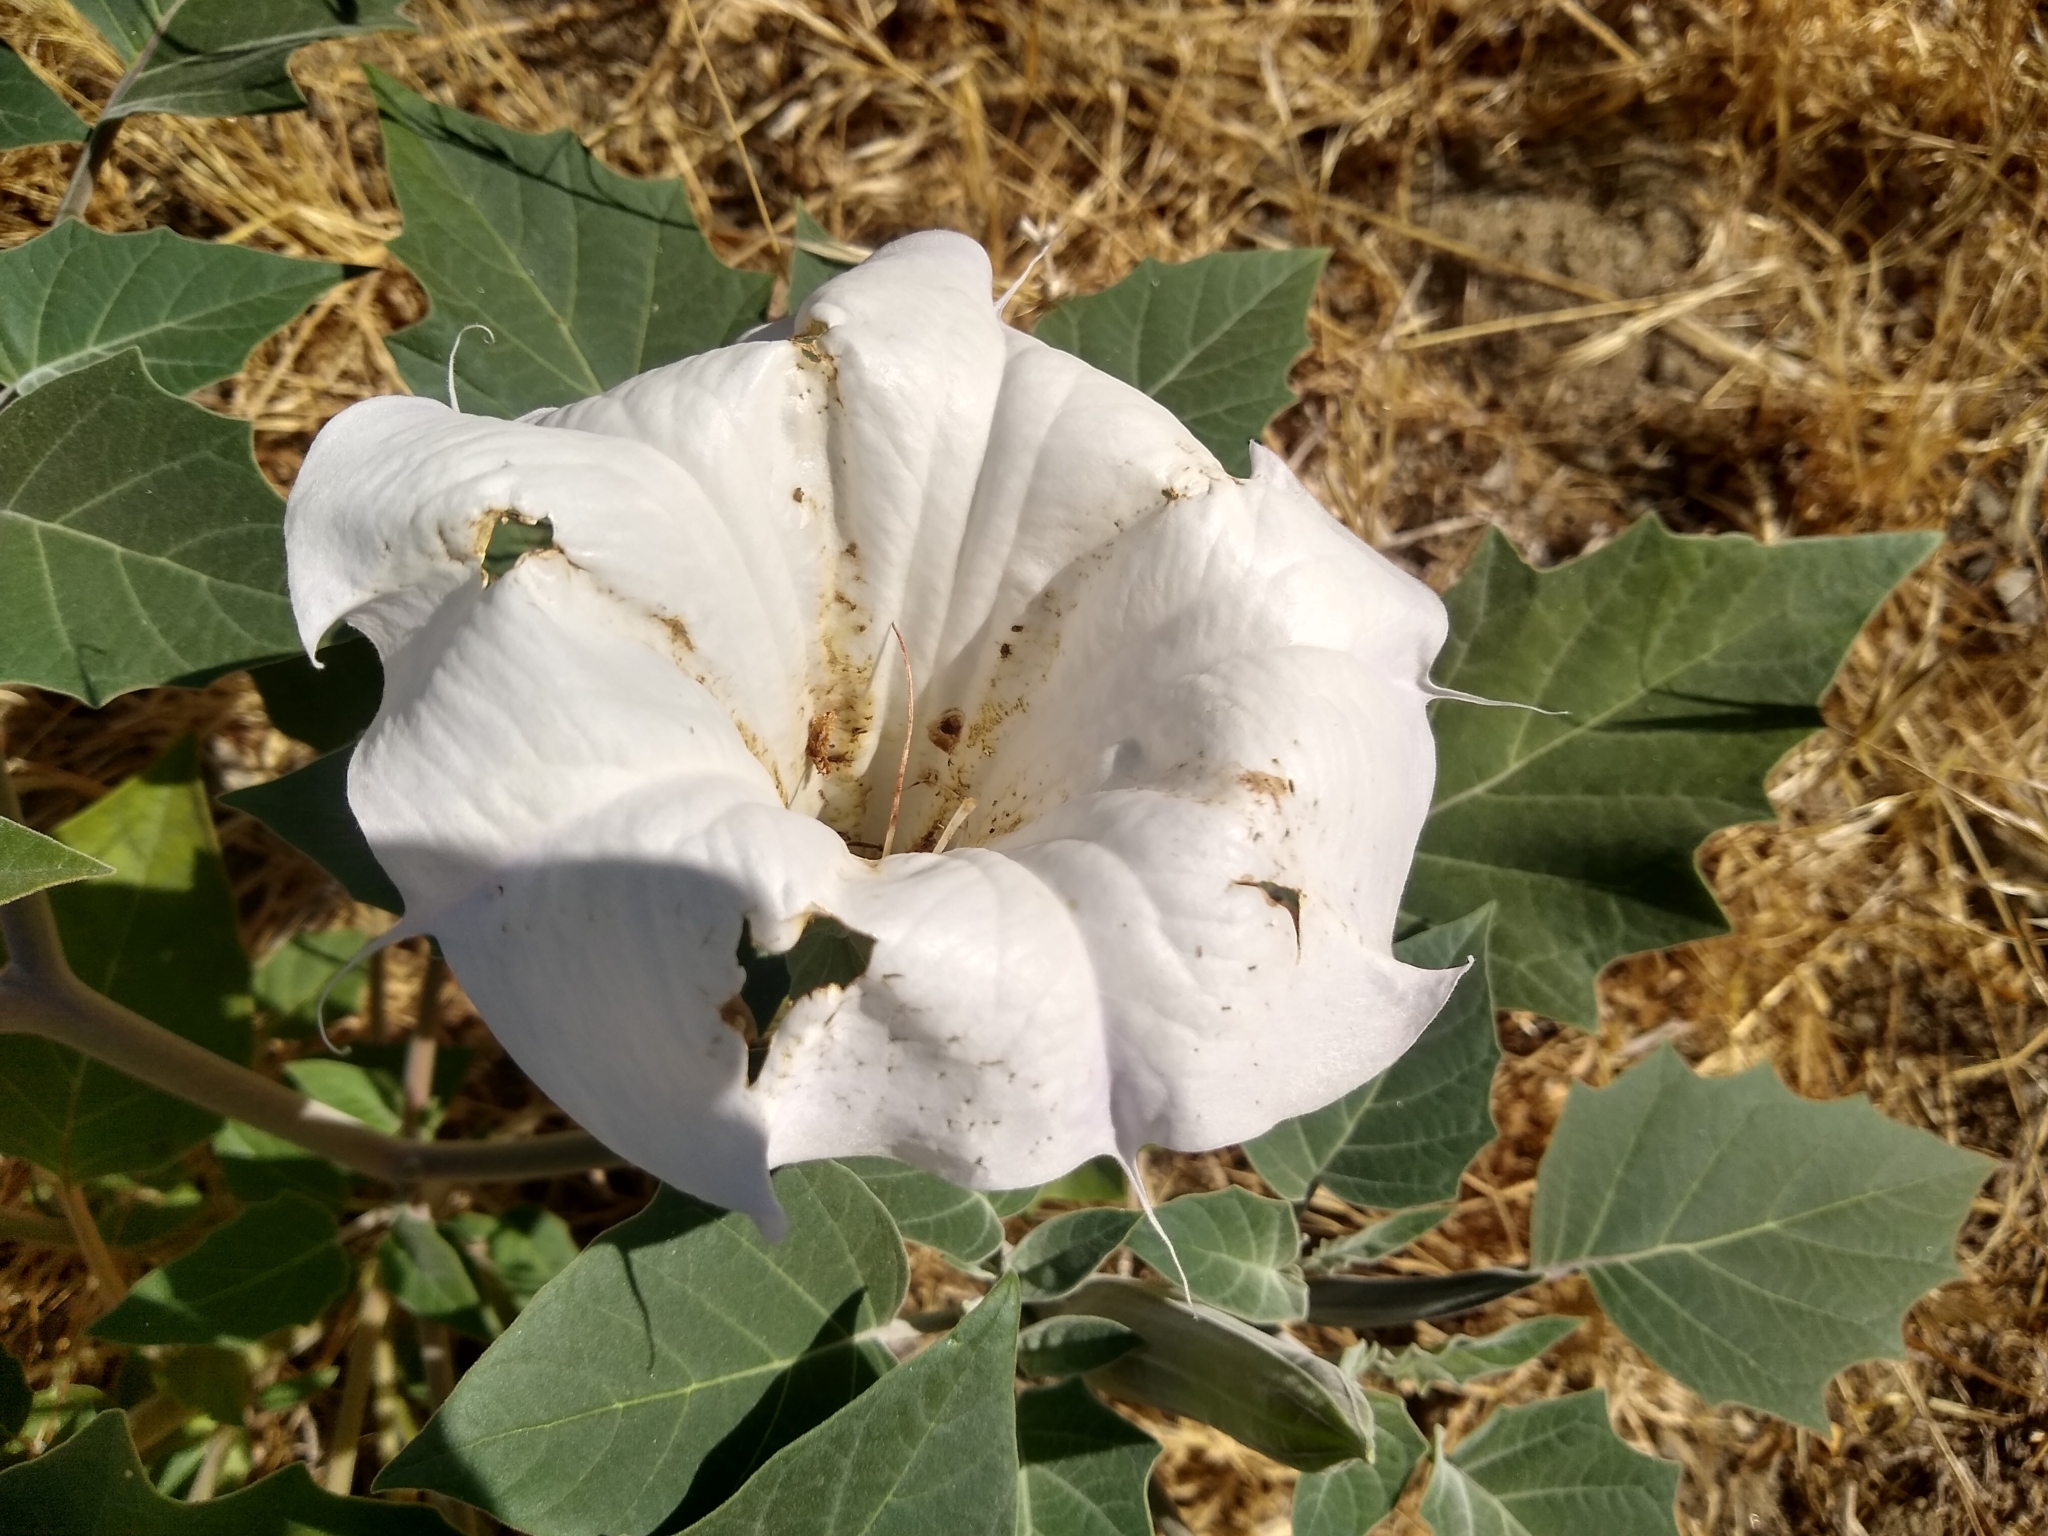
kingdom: Plantae
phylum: Tracheophyta
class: Magnoliopsida
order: Solanales
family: Solanaceae
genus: Datura
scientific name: Datura wrightii
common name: Sacred thorn-apple
